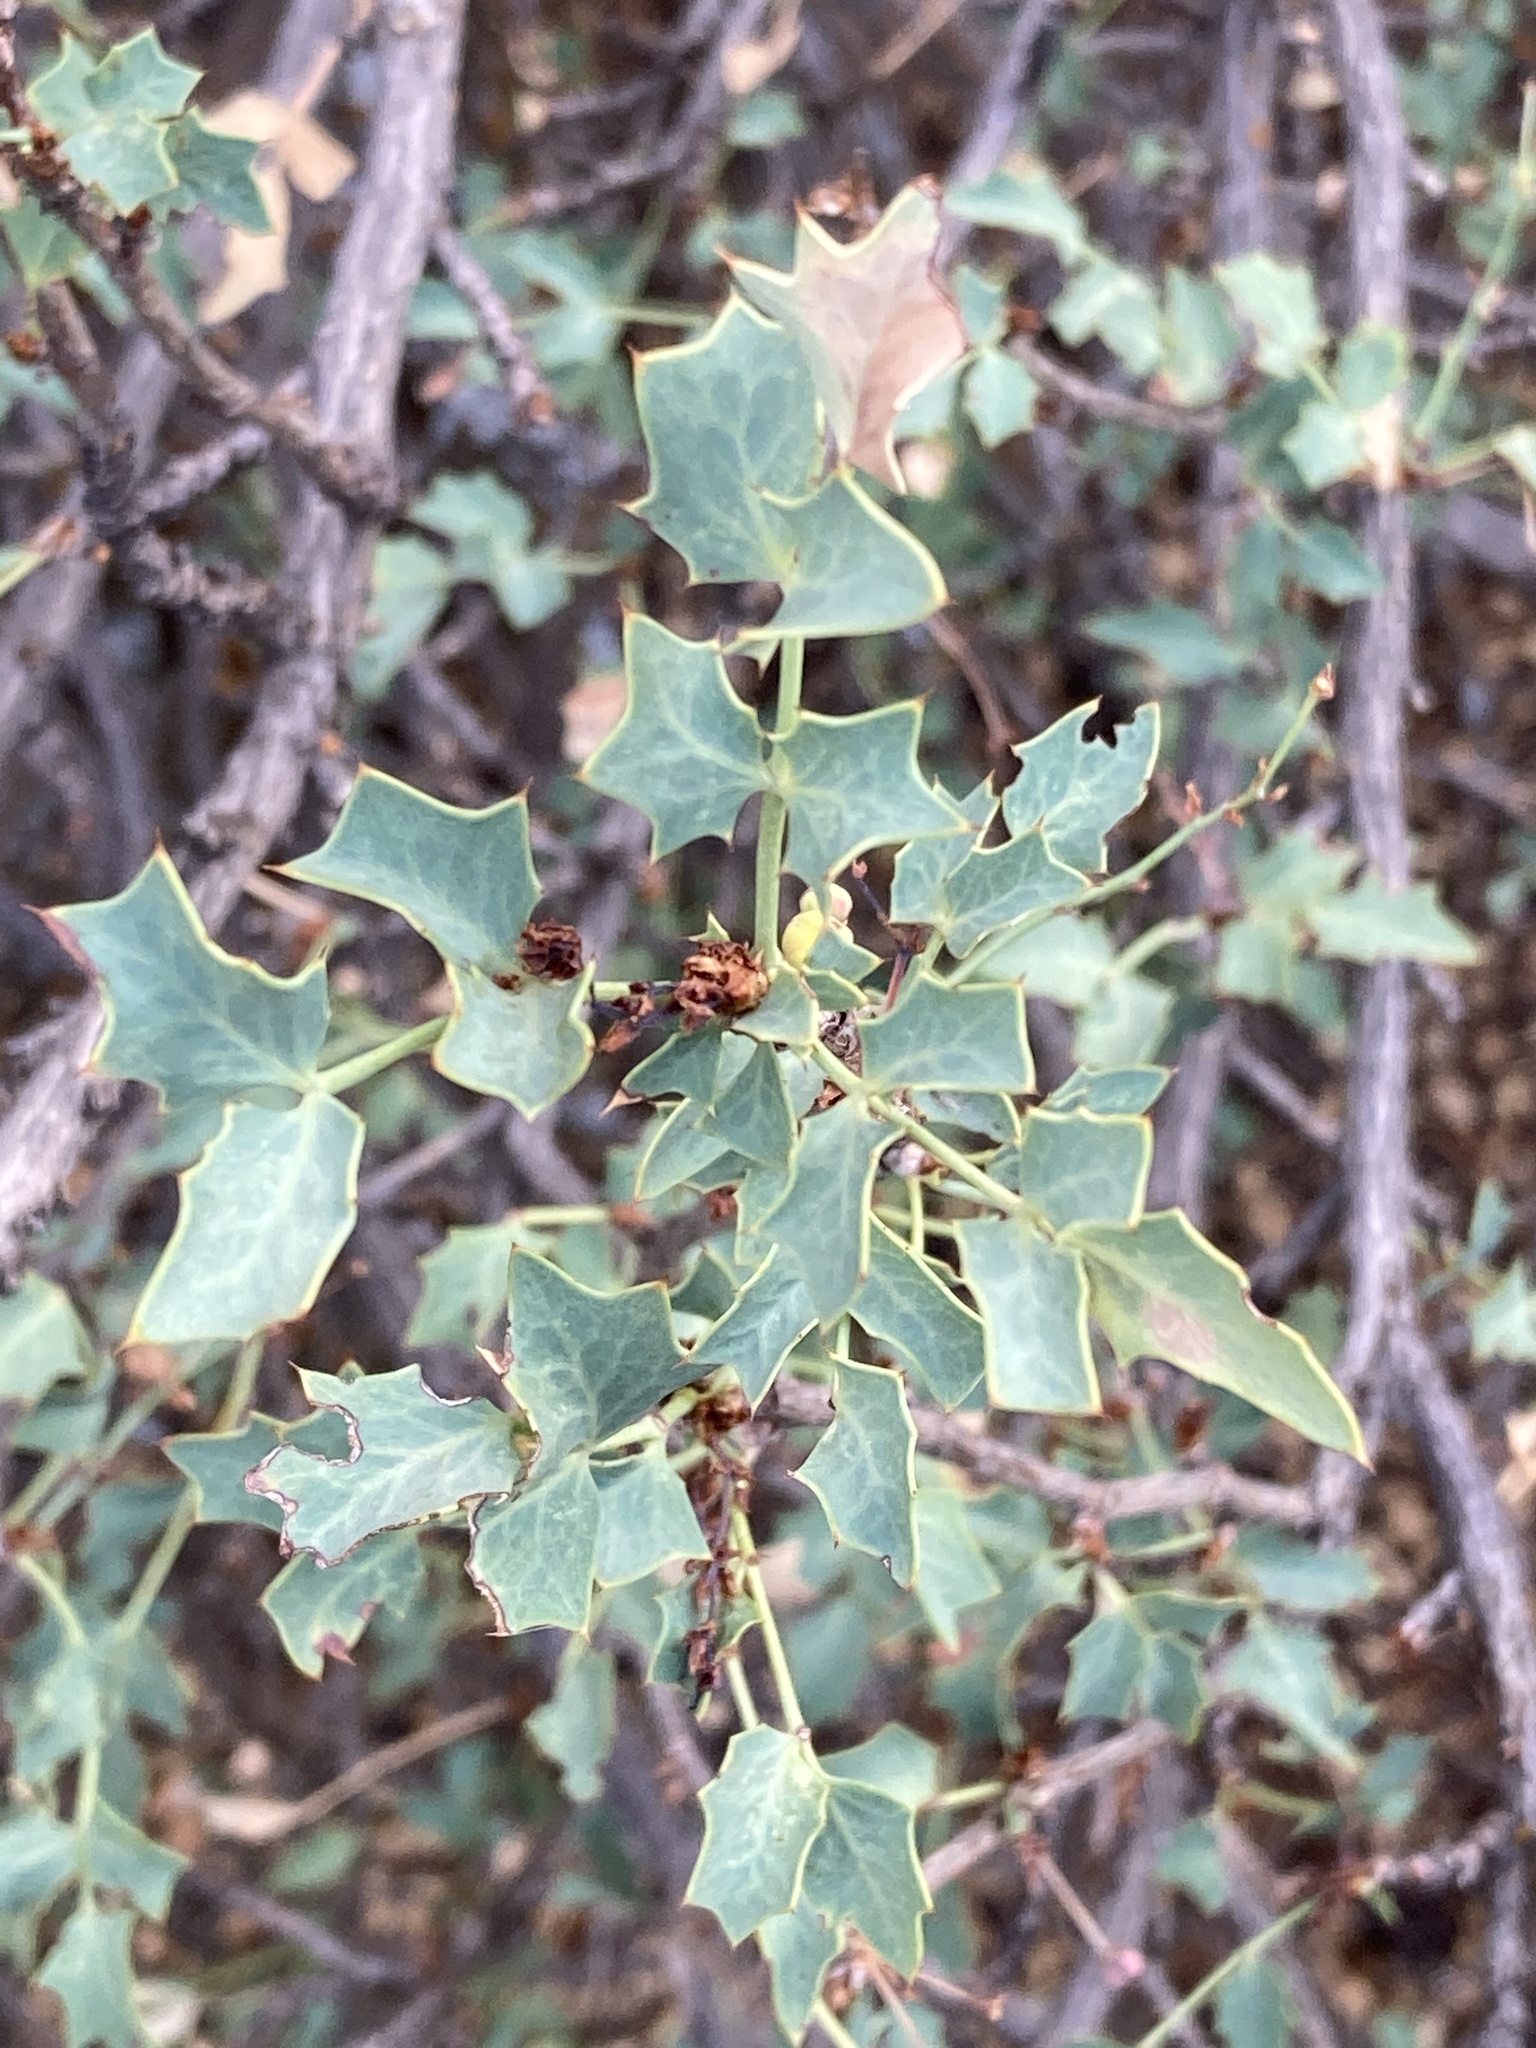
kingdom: Plantae
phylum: Tracheophyta
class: Magnoliopsida
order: Ranunculales
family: Berberidaceae
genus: Alloberberis
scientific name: Alloberberis fremontii
